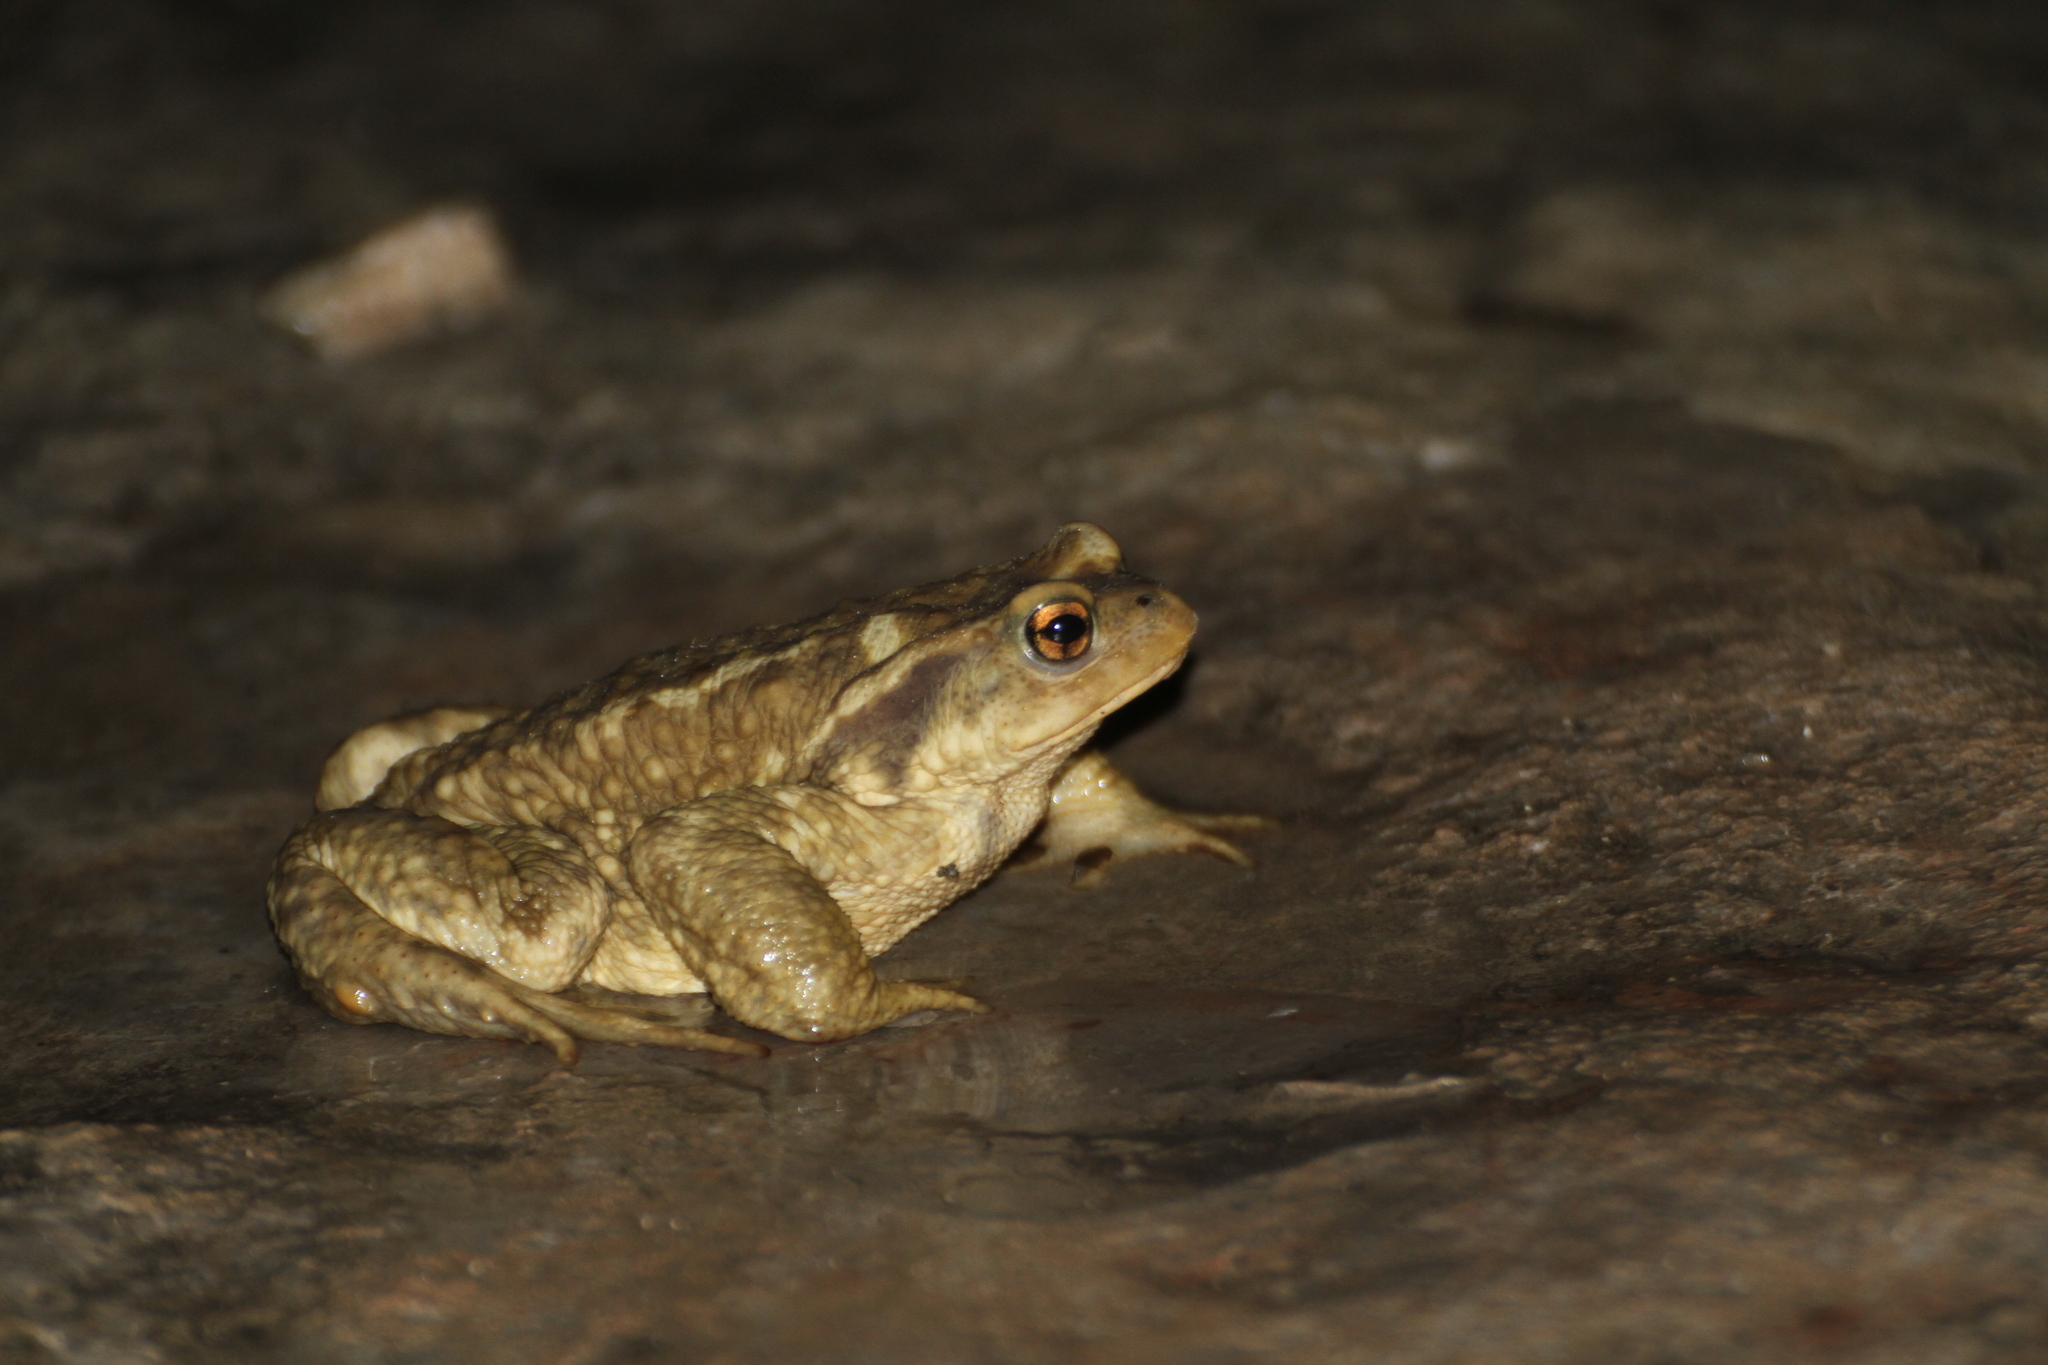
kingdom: Animalia
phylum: Chordata
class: Amphibia
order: Anura
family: Bufonidae
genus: Bufo
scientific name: Bufo spinosus
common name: Western common toad
